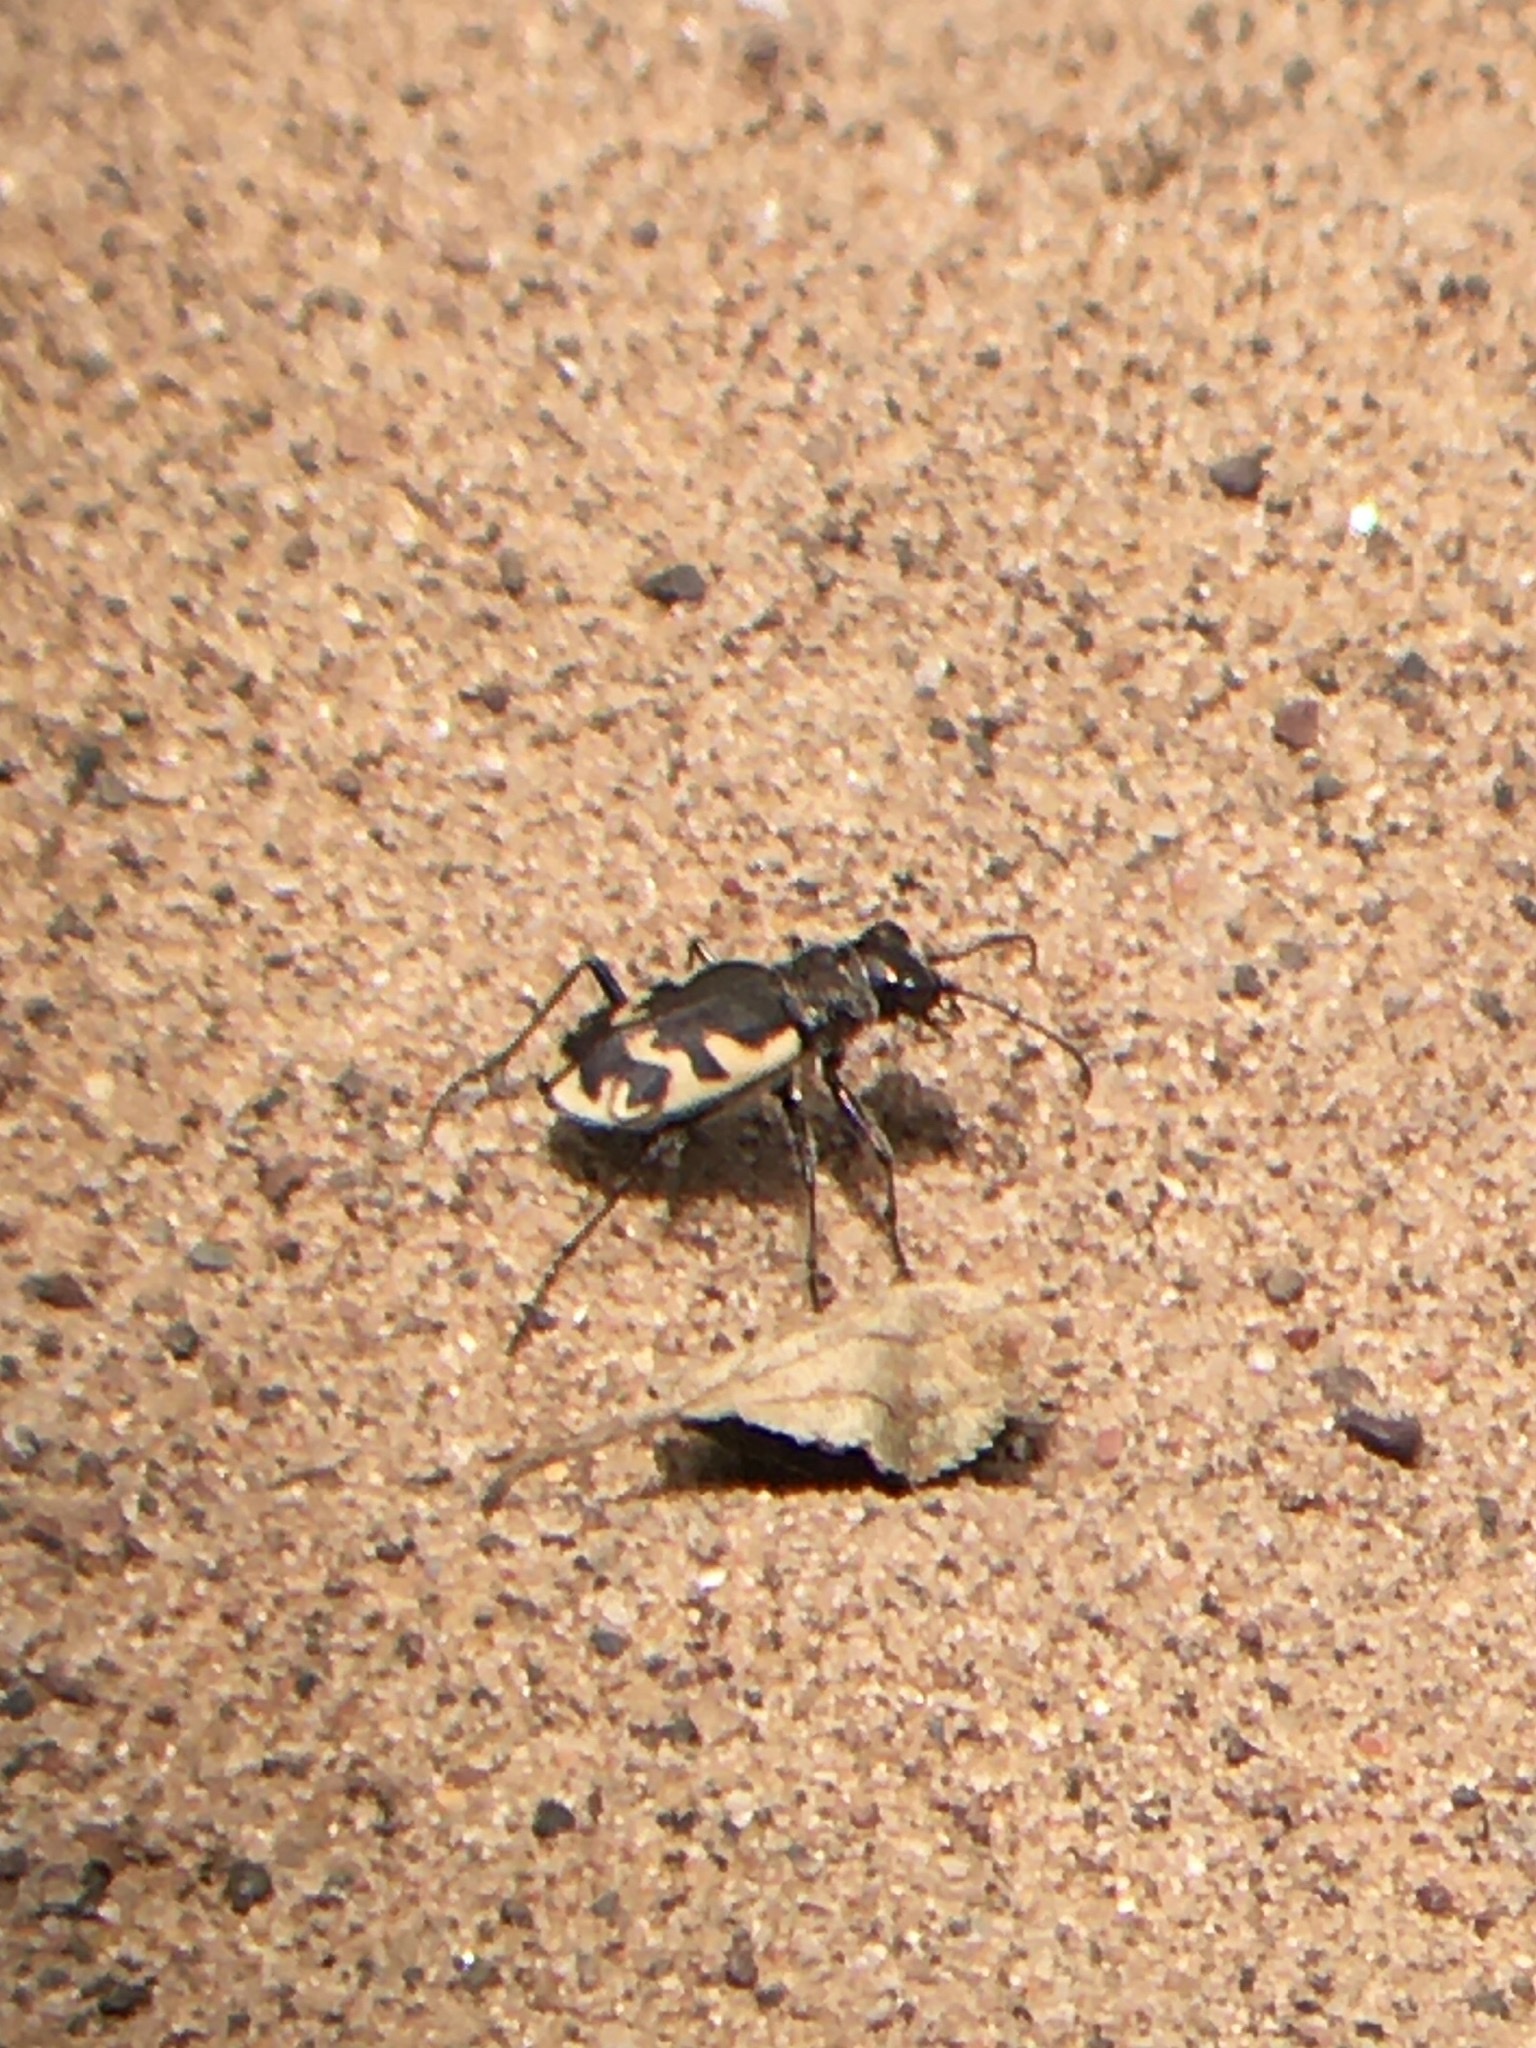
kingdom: Animalia
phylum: Arthropoda
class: Insecta
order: Coleoptera
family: Carabidae
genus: Cicindela
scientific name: Cicindela formosa
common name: Big sand tiger beetle
